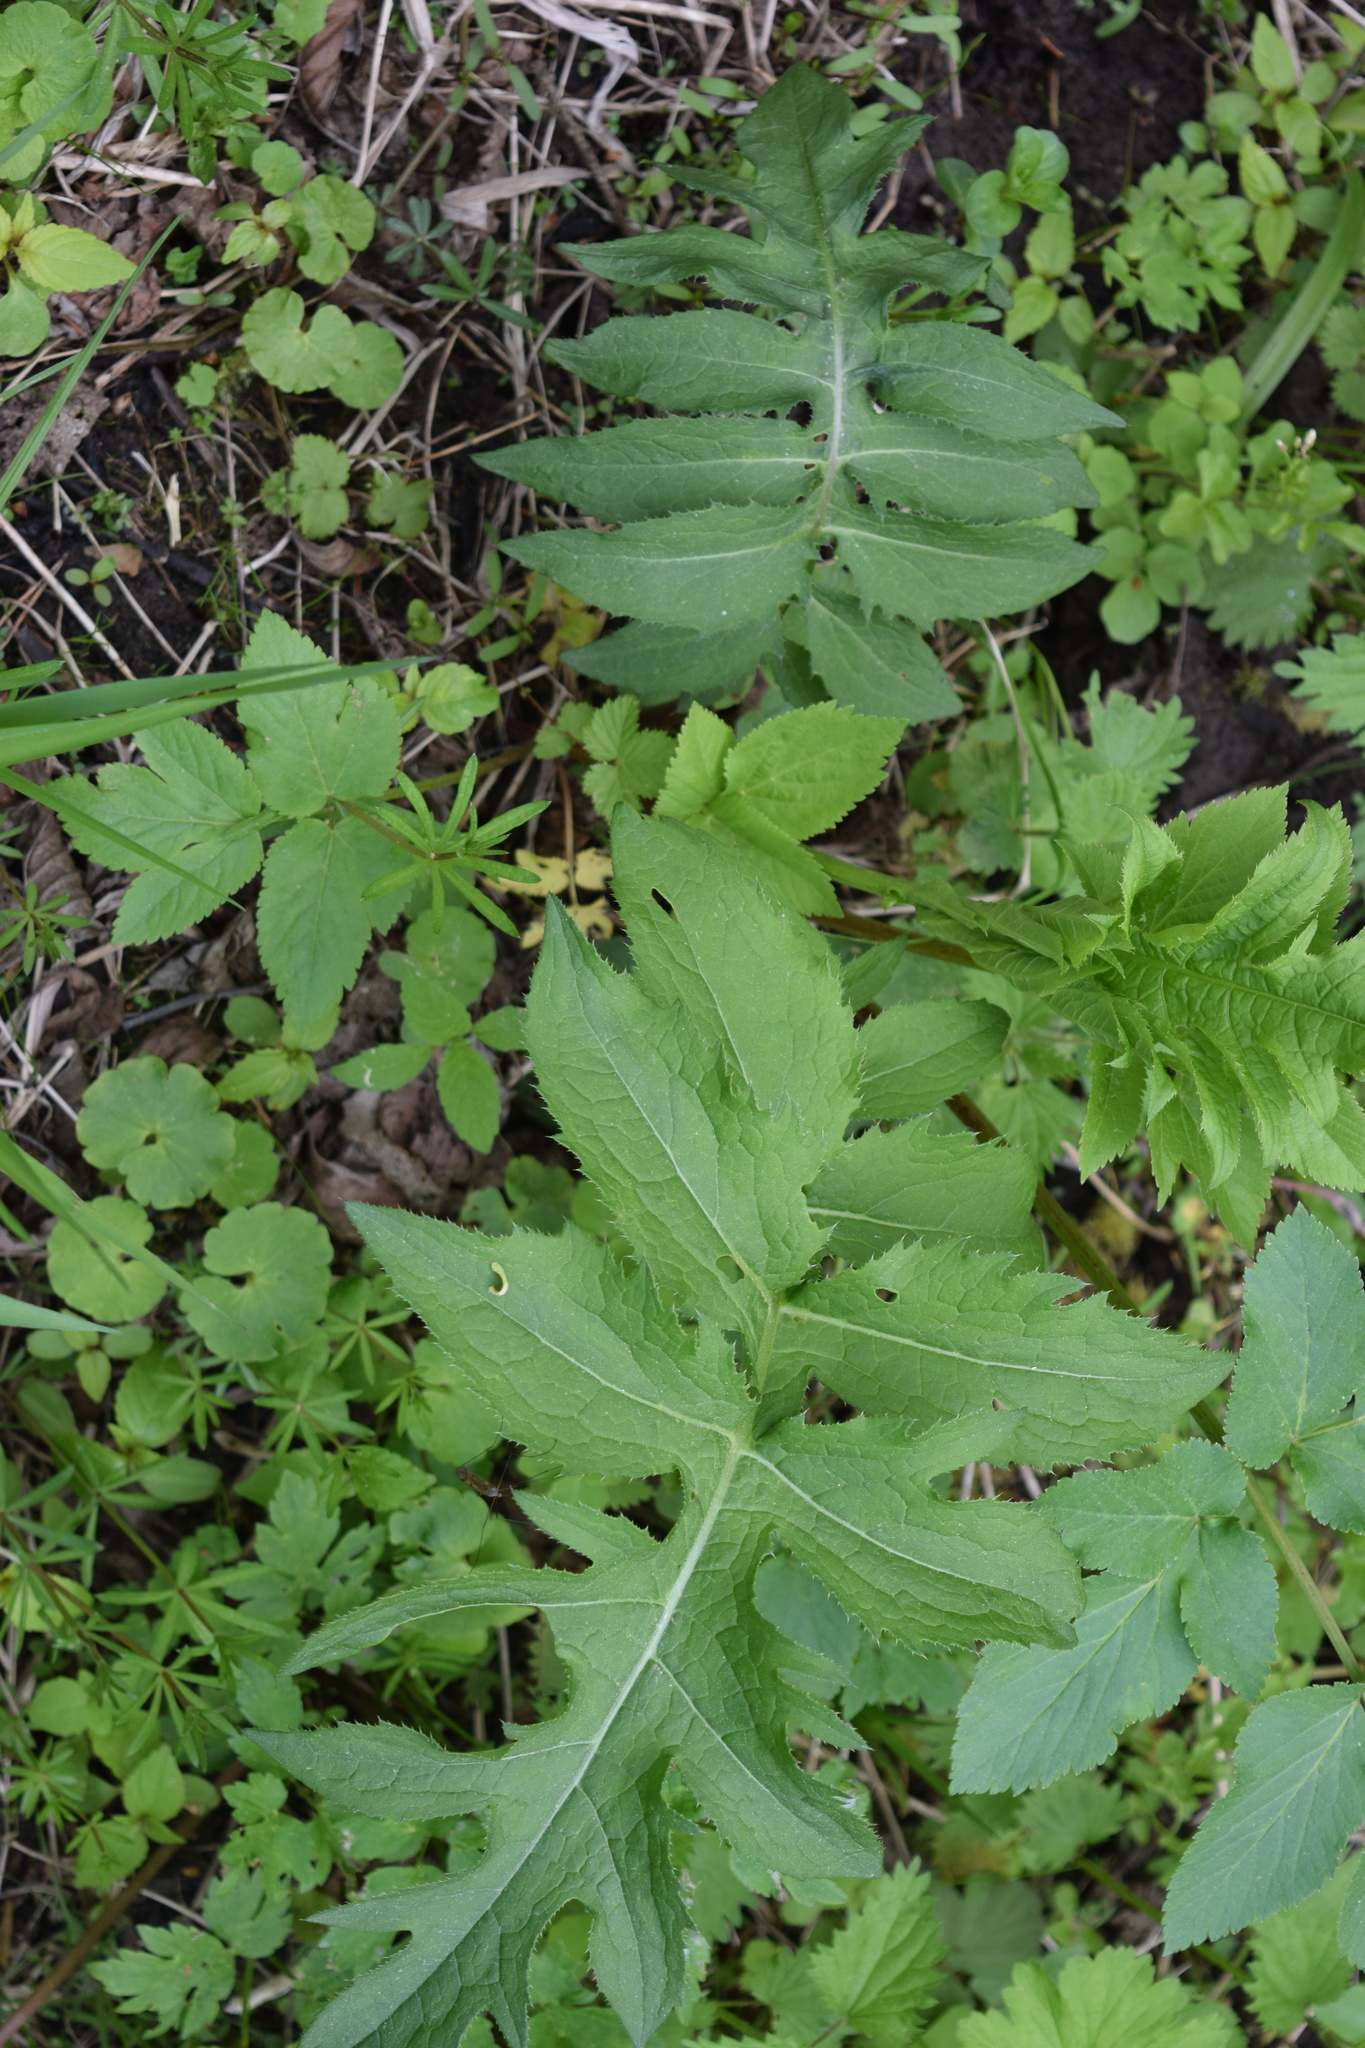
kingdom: Plantae
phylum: Tracheophyta
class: Magnoliopsida
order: Asterales
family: Asteraceae
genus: Cirsium
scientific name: Cirsium oleraceum
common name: Cabbage thistle
